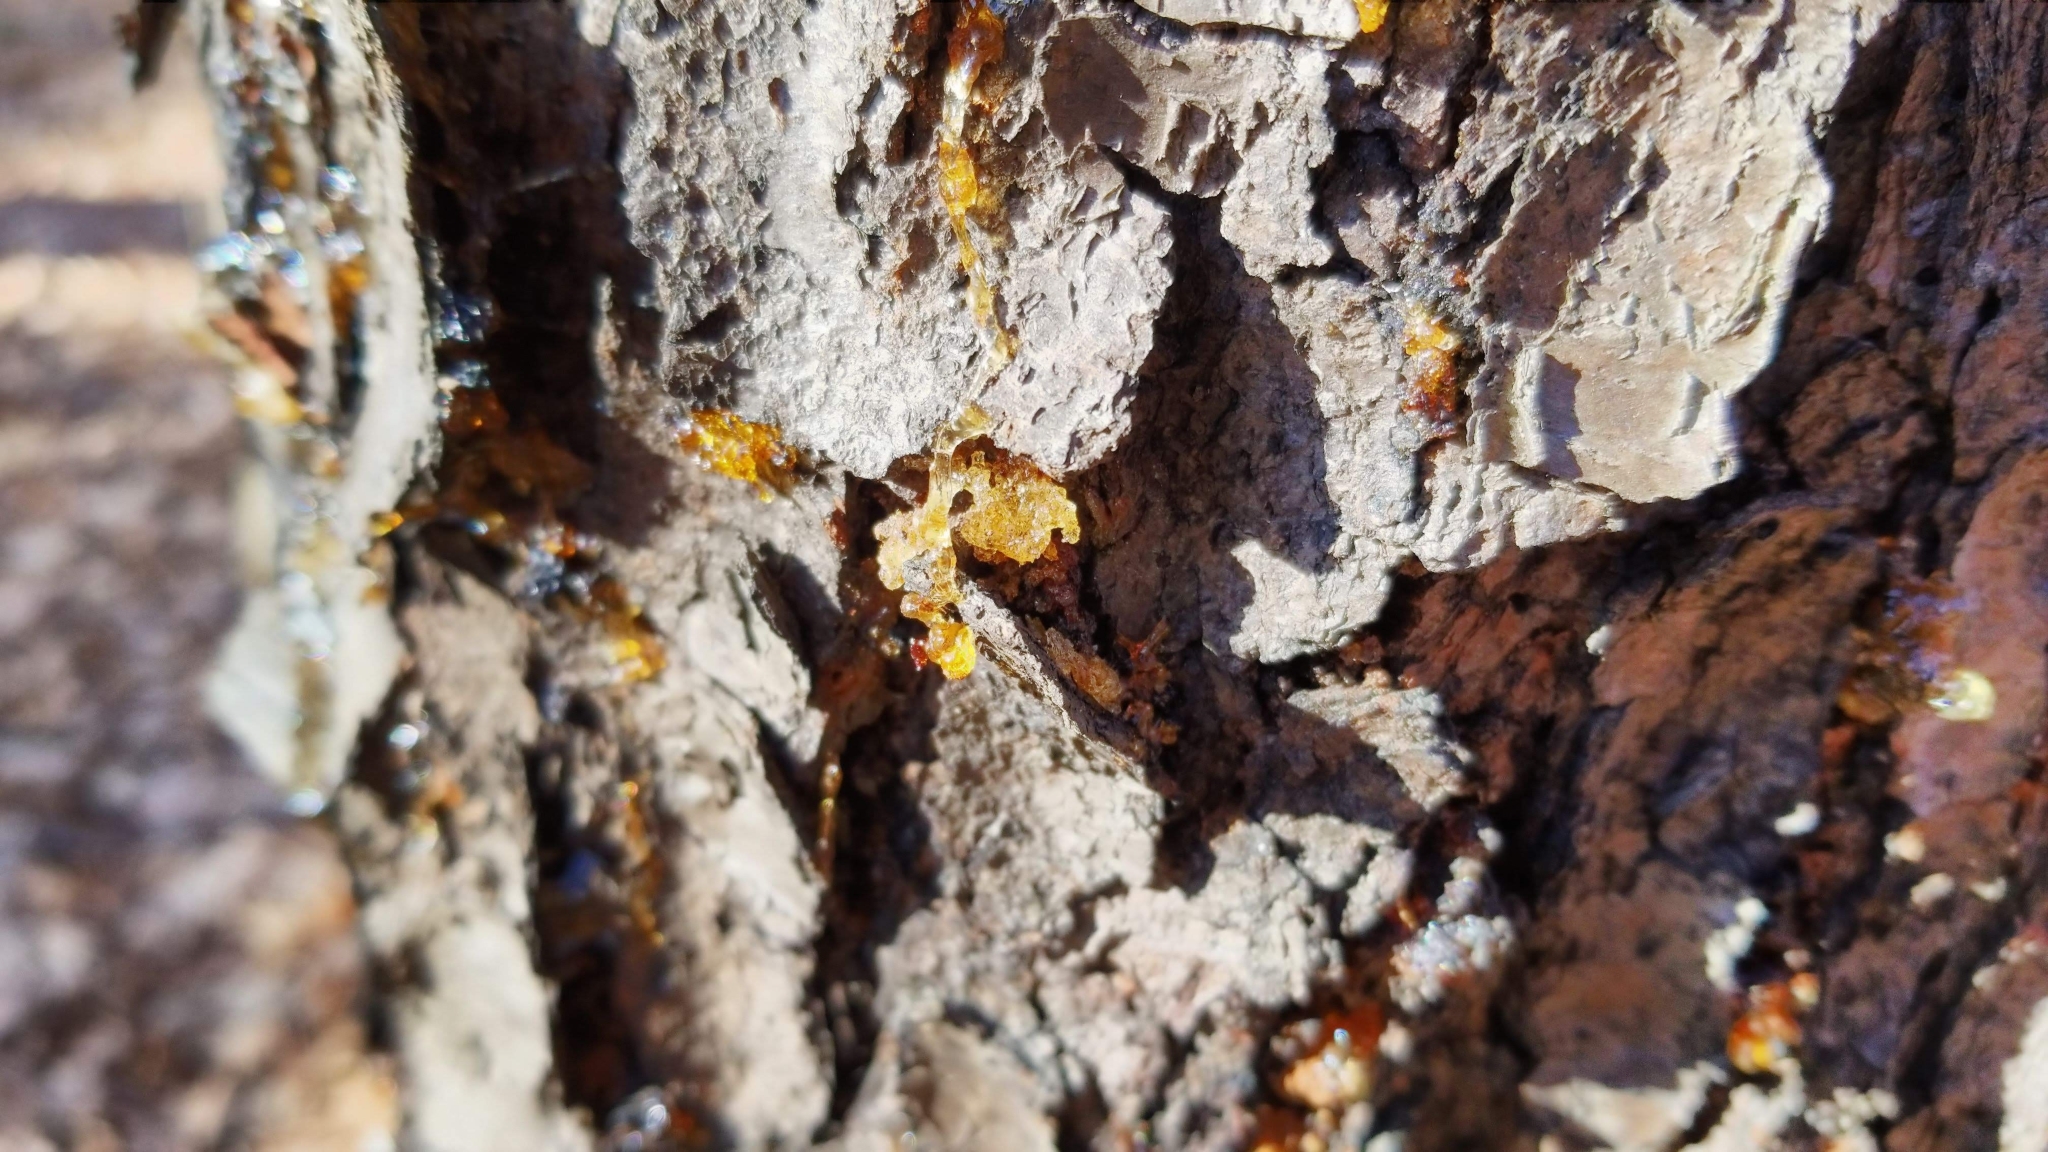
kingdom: Plantae
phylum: Tracheophyta
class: Magnoliopsida
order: Rosales
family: Rosaceae
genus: Prunus
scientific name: Prunus serotina
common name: Black cherry
